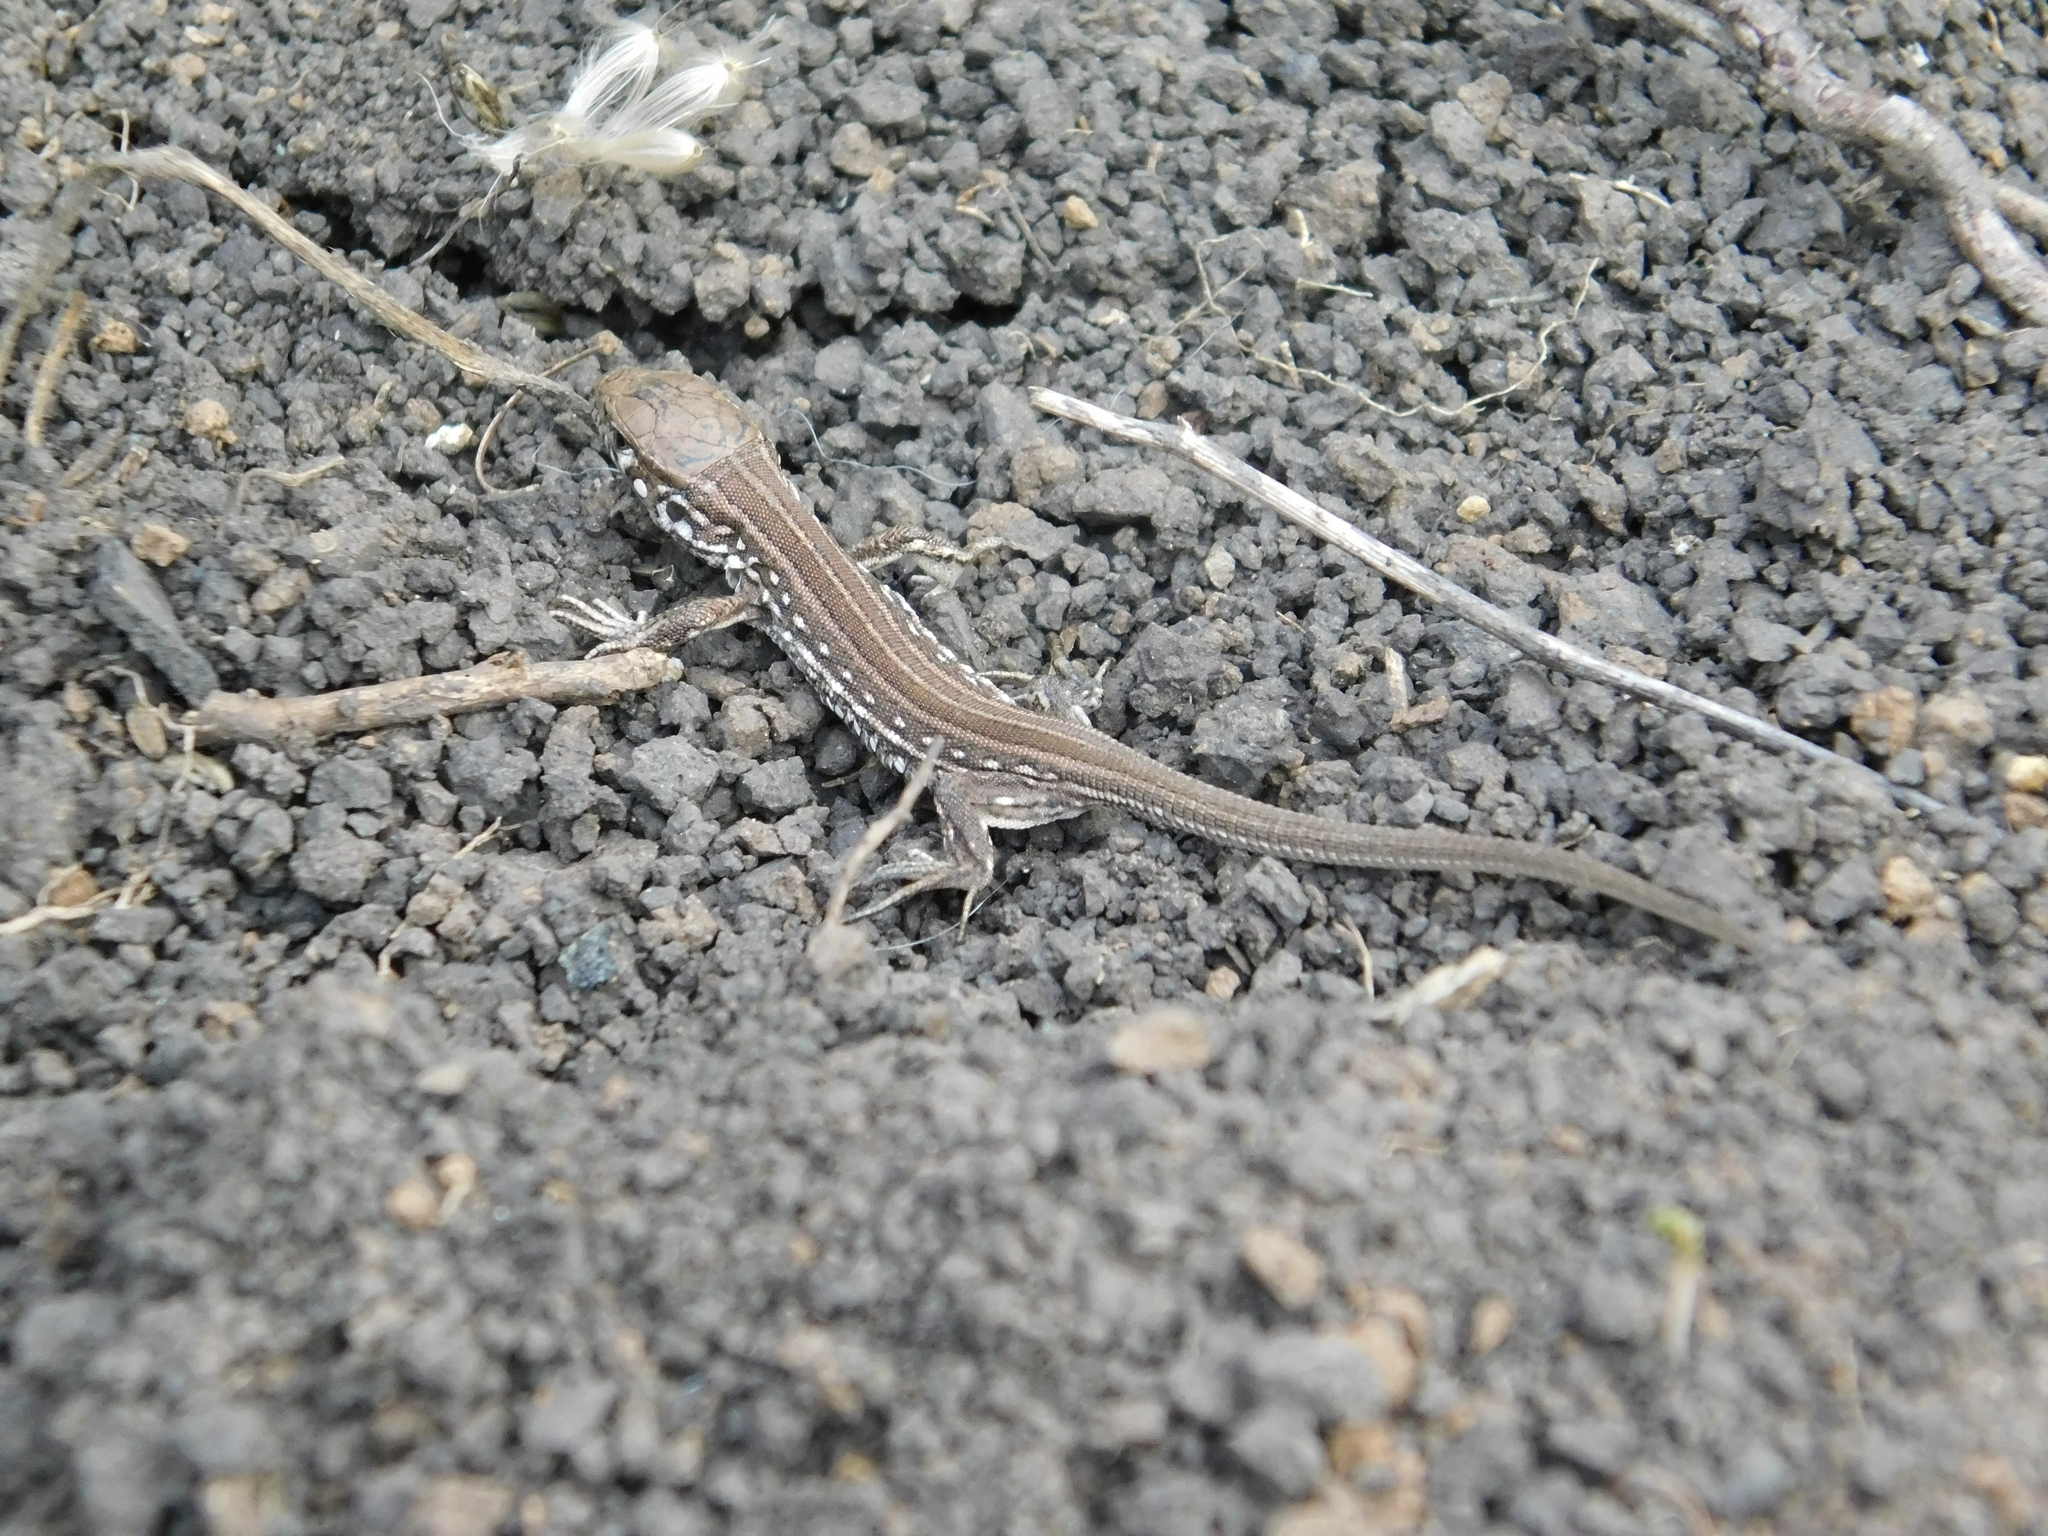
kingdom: Animalia
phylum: Chordata
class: Squamata
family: Lacertidae
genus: Lacerta
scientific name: Lacerta agilis
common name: Sand lizard
